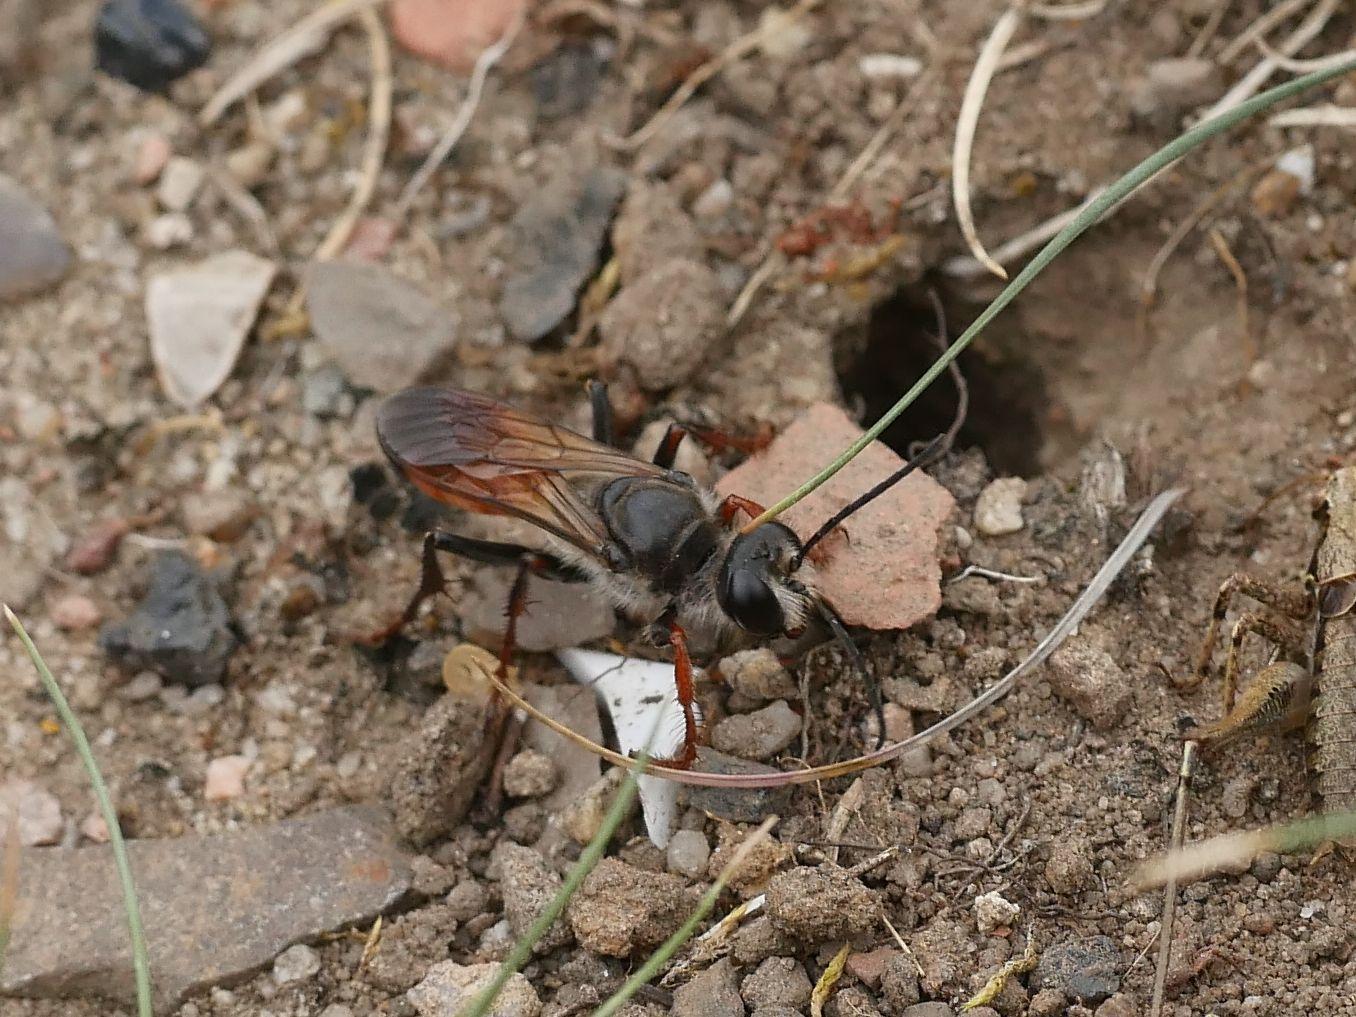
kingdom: Animalia
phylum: Arthropoda
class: Insecta
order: Hymenoptera
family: Sphecidae
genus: Sphex
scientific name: Sphex funerarius
